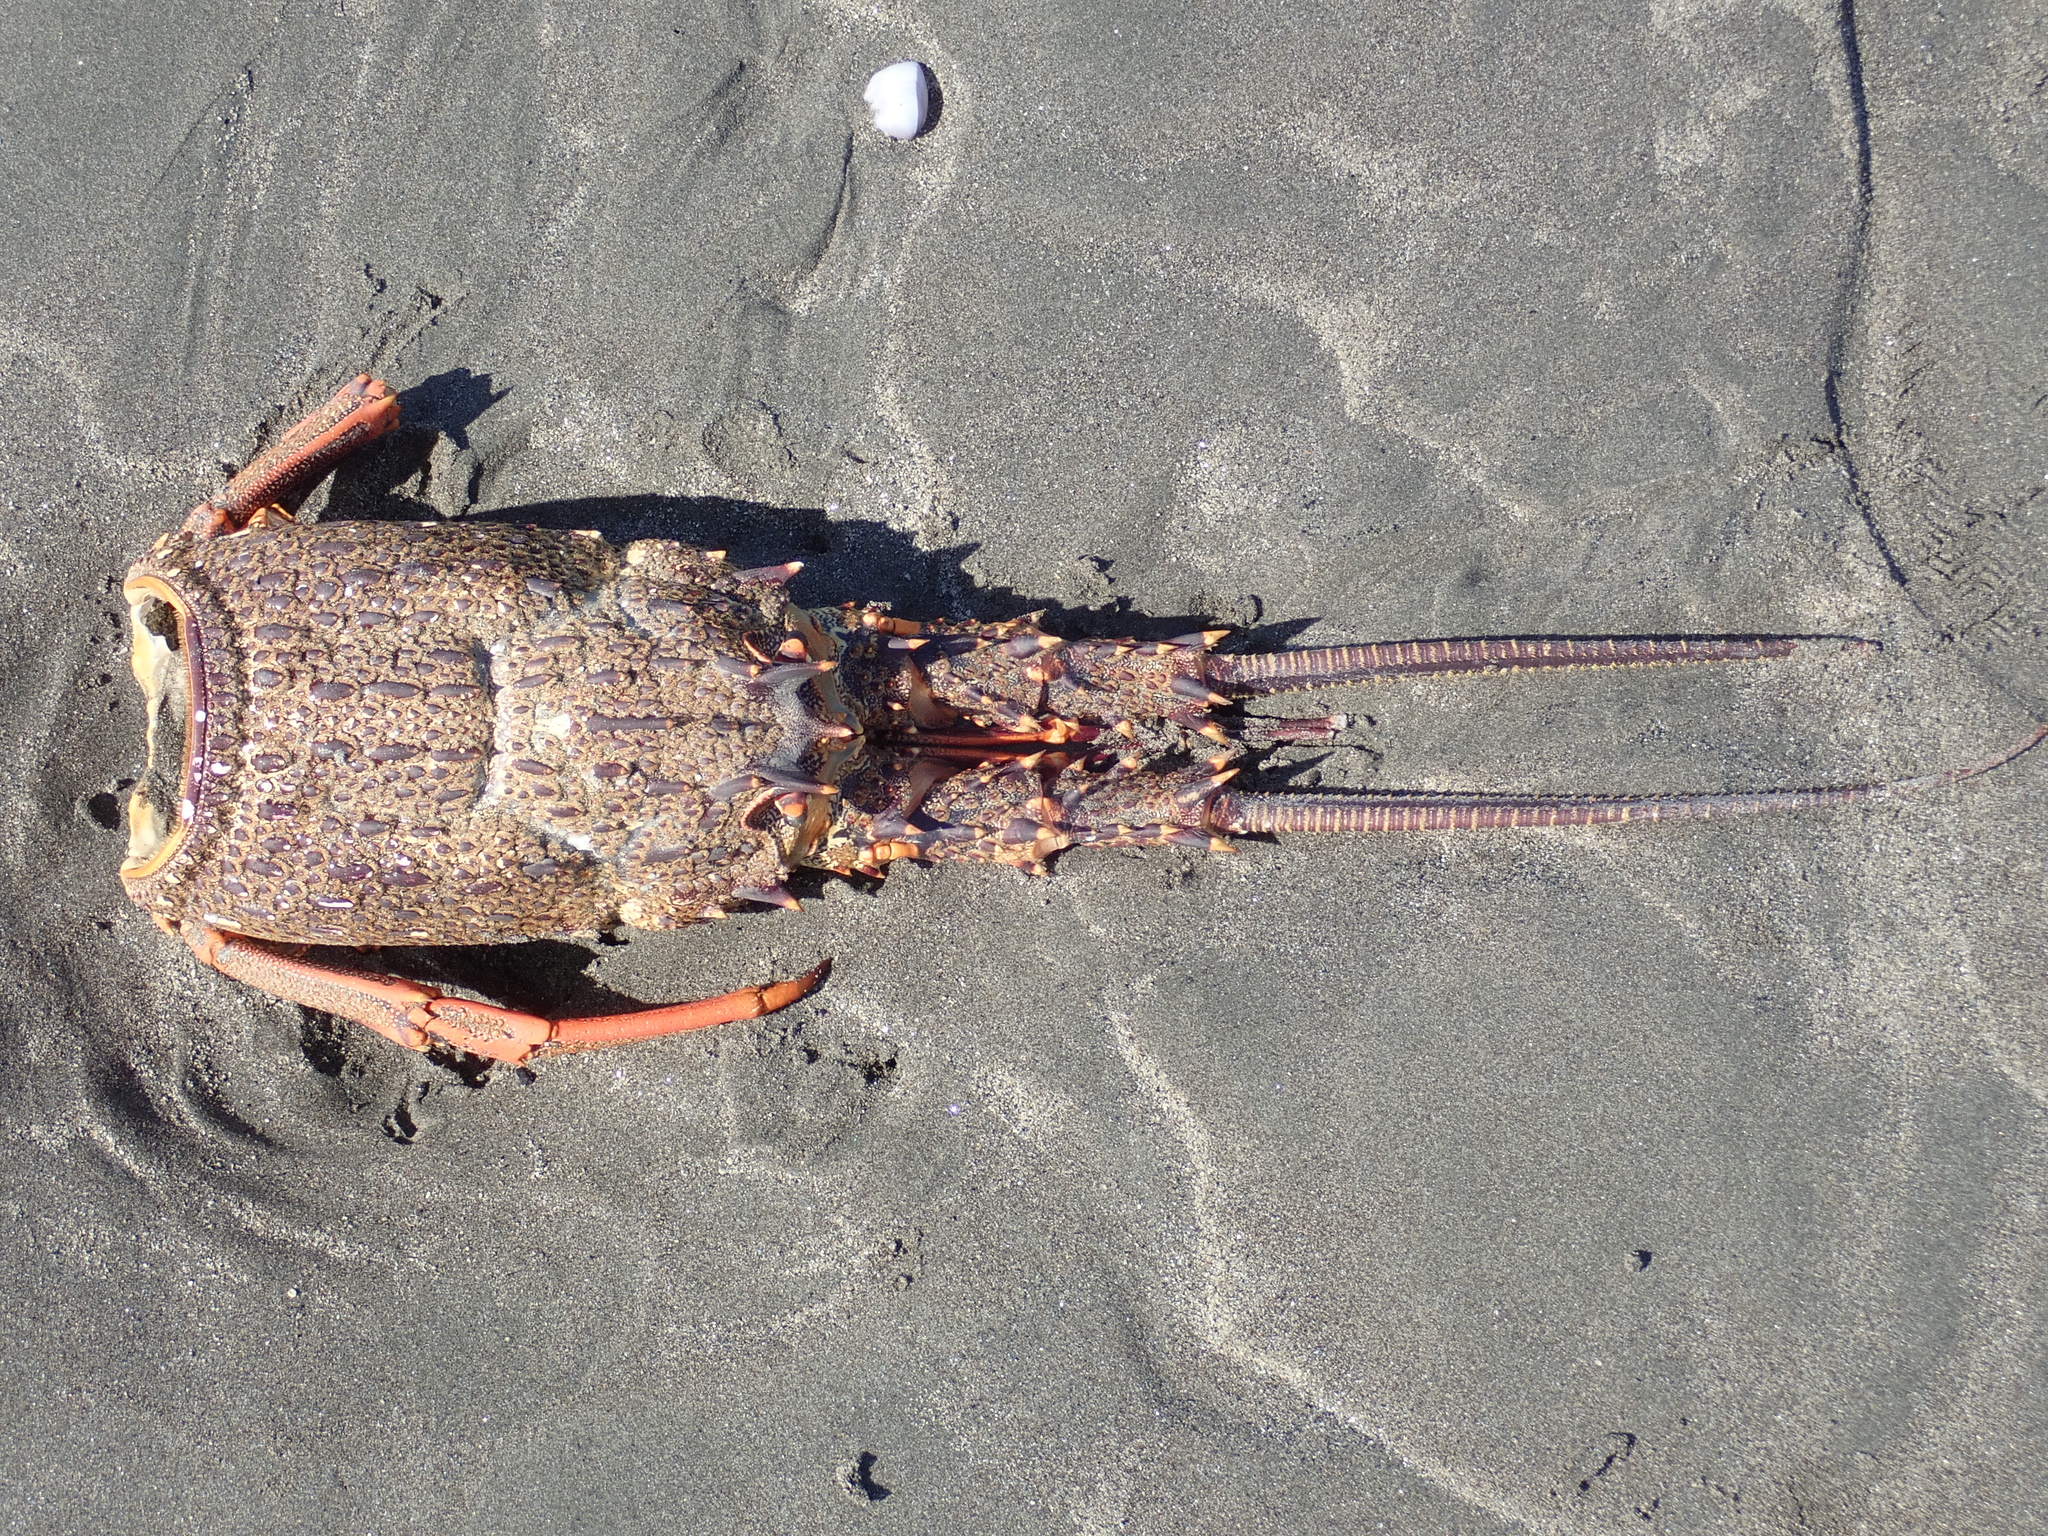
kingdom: Animalia
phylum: Arthropoda
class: Malacostraca
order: Decapoda
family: Palinuridae
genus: Jasus
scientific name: Jasus edwardsii
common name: Red rock lobster
